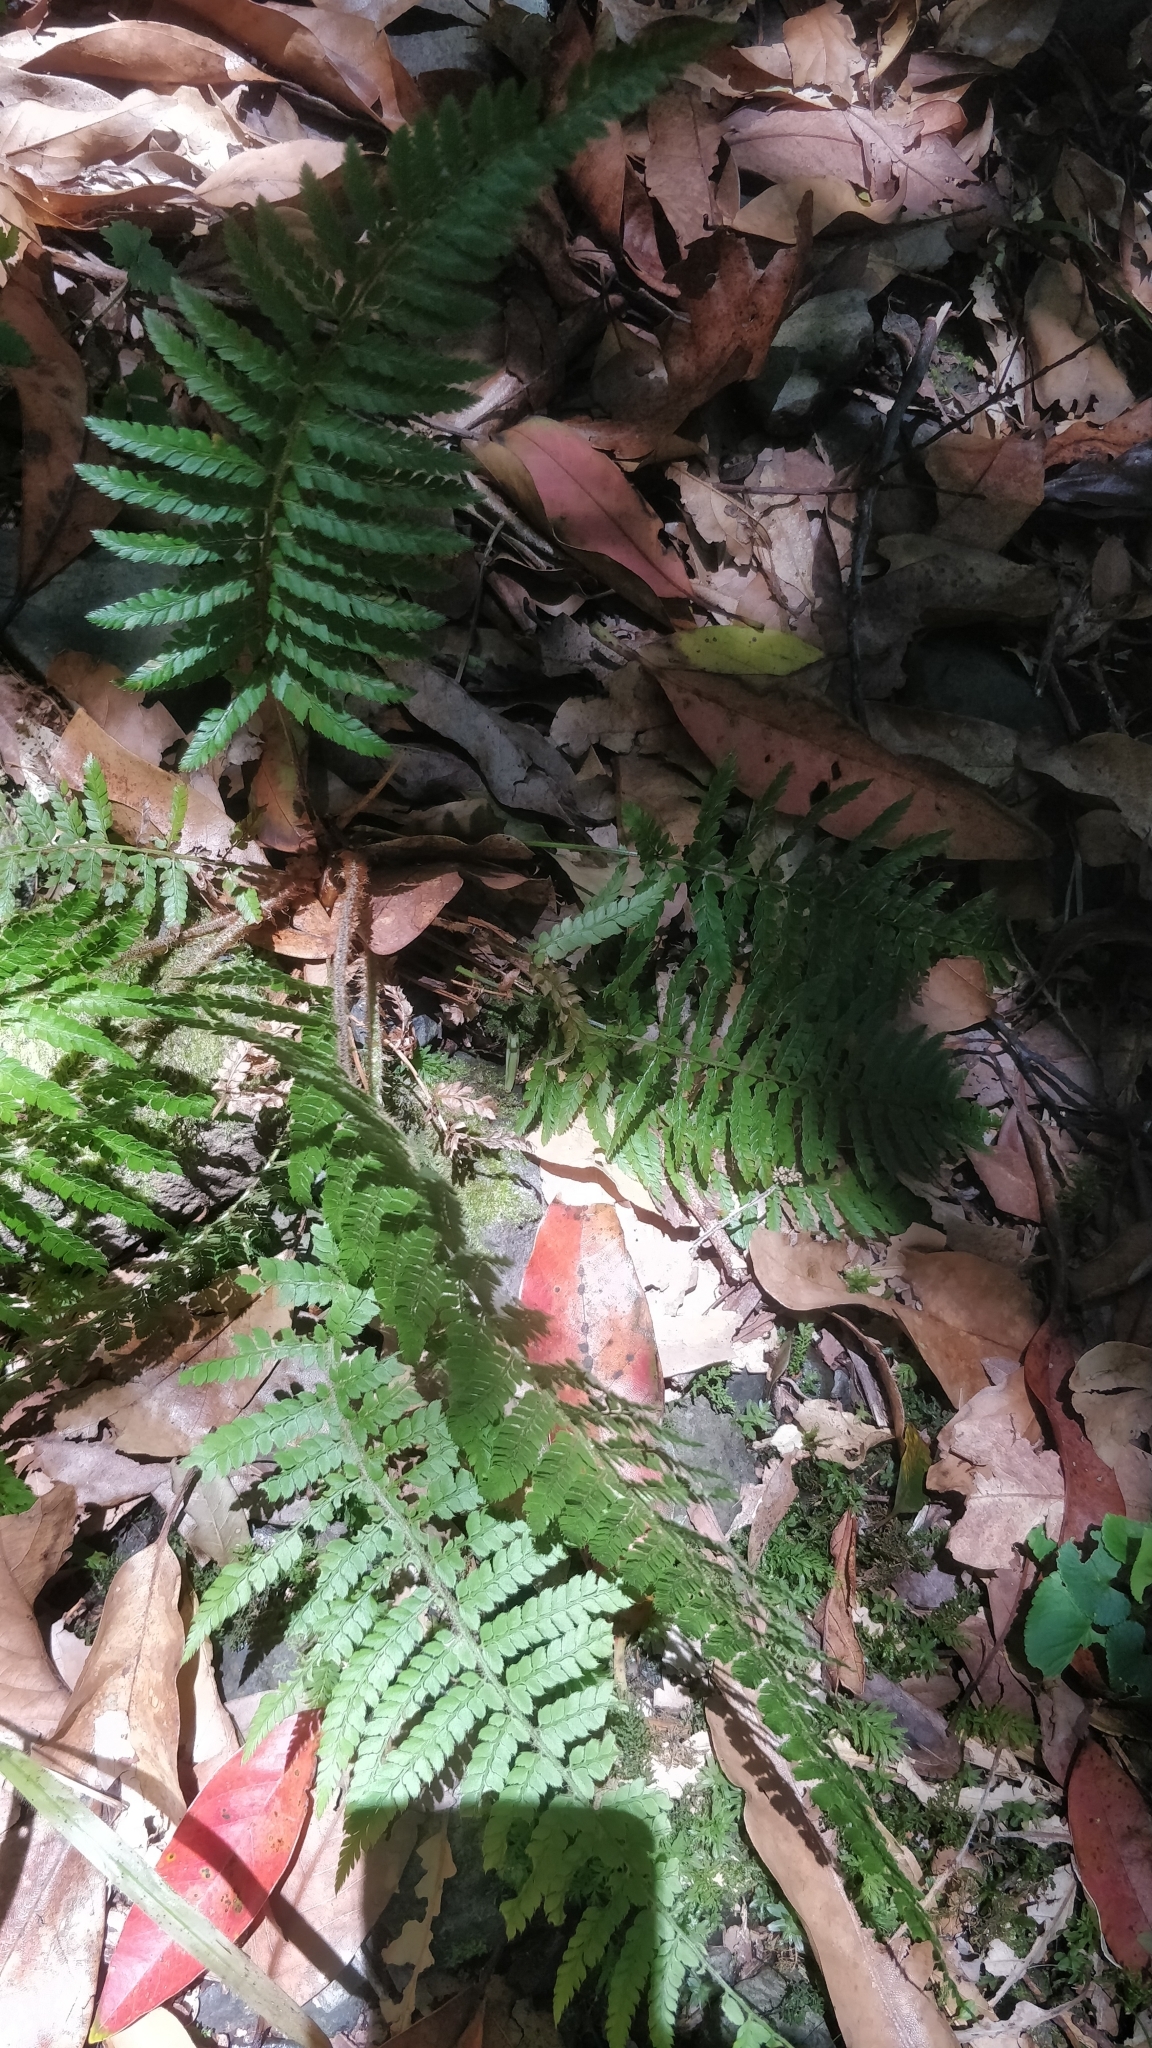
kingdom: Plantae
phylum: Tracheophyta
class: Polypodiopsida
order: Polypodiales
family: Dryopteridaceae
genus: Polystichum
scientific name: Polystichum setiferum
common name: Soft shield-fern
